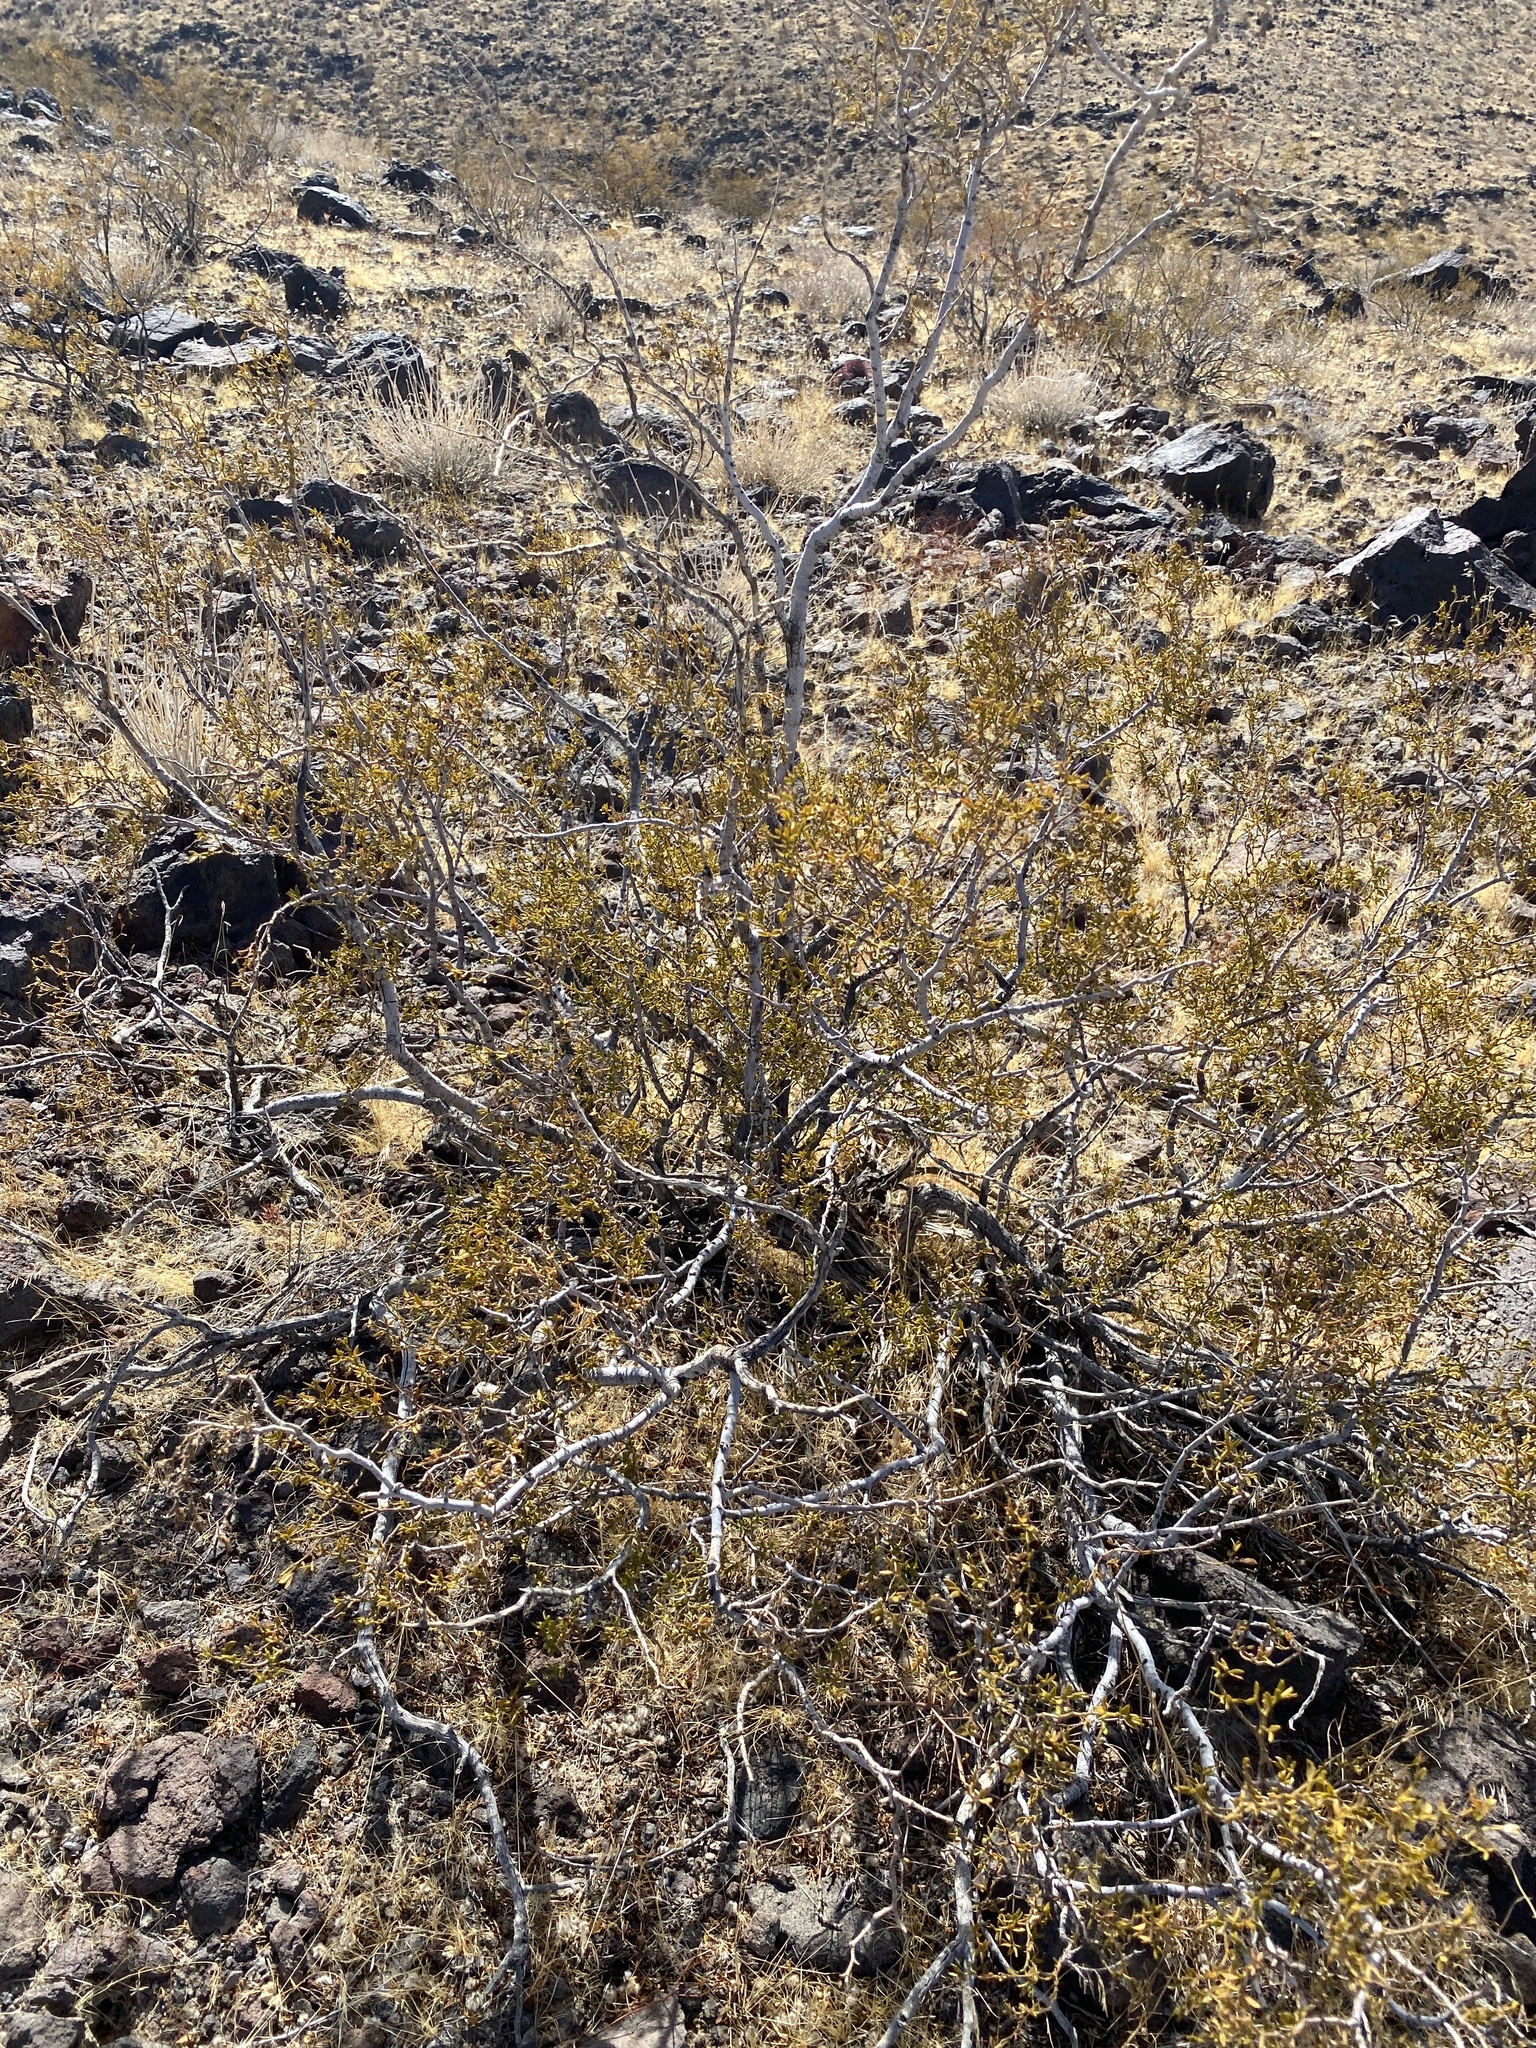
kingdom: Plantae
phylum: Tracheophyta
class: Magnoliopsida
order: Zygophyllales
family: Zygophyllaceae
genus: Larrea
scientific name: Larrea tridentata
